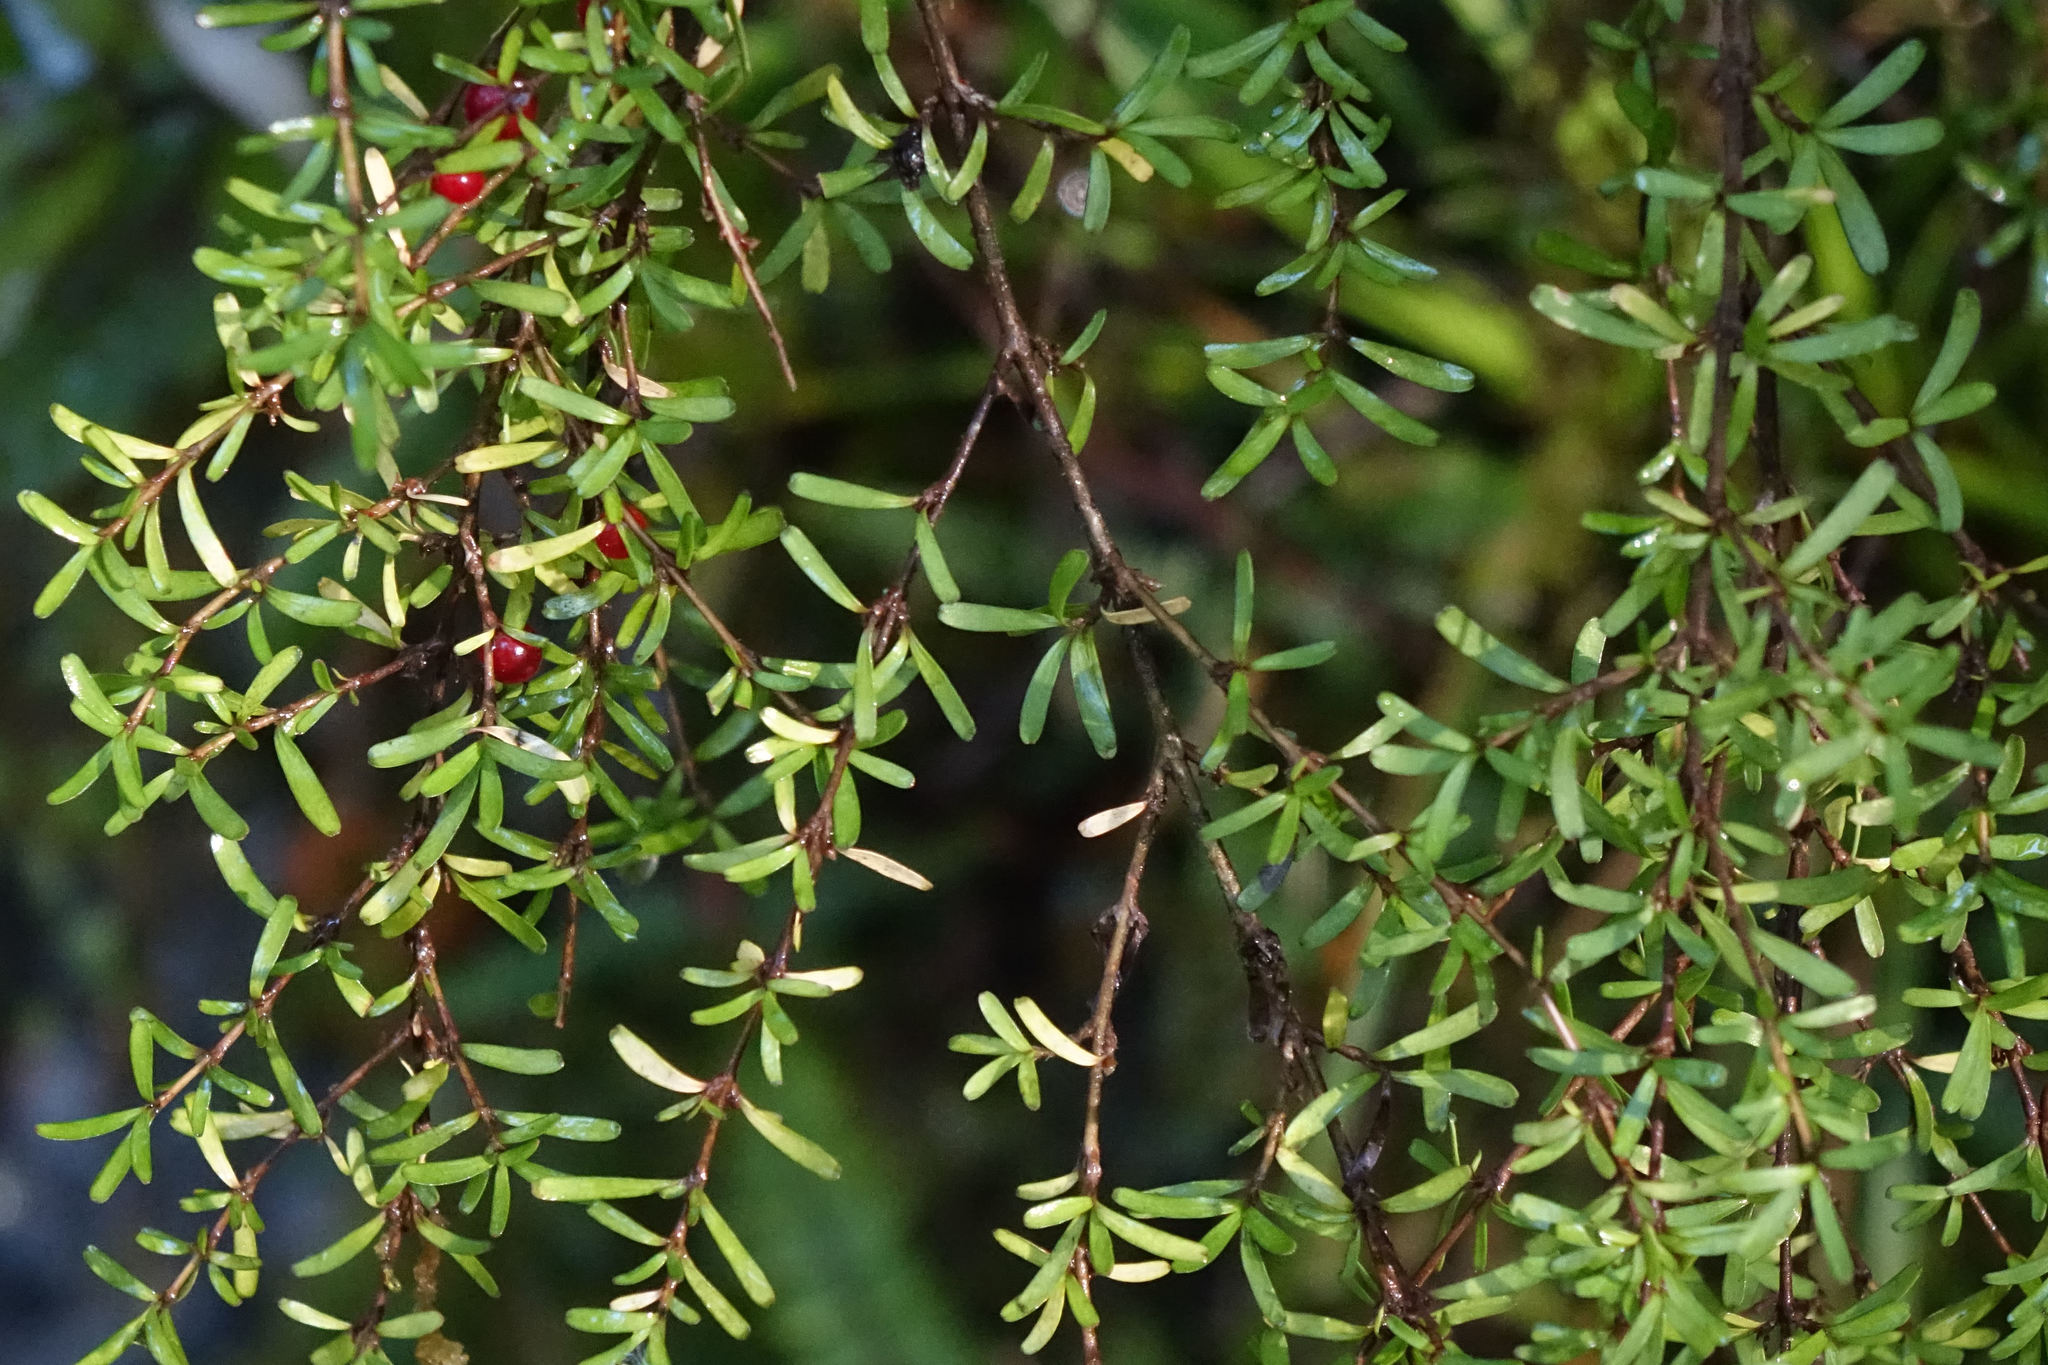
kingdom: Plantae
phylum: Tracheophyta
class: Magnoliopsida
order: Gentianales
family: Rubiaceae
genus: Coprosma
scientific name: Coprosma cuneata
